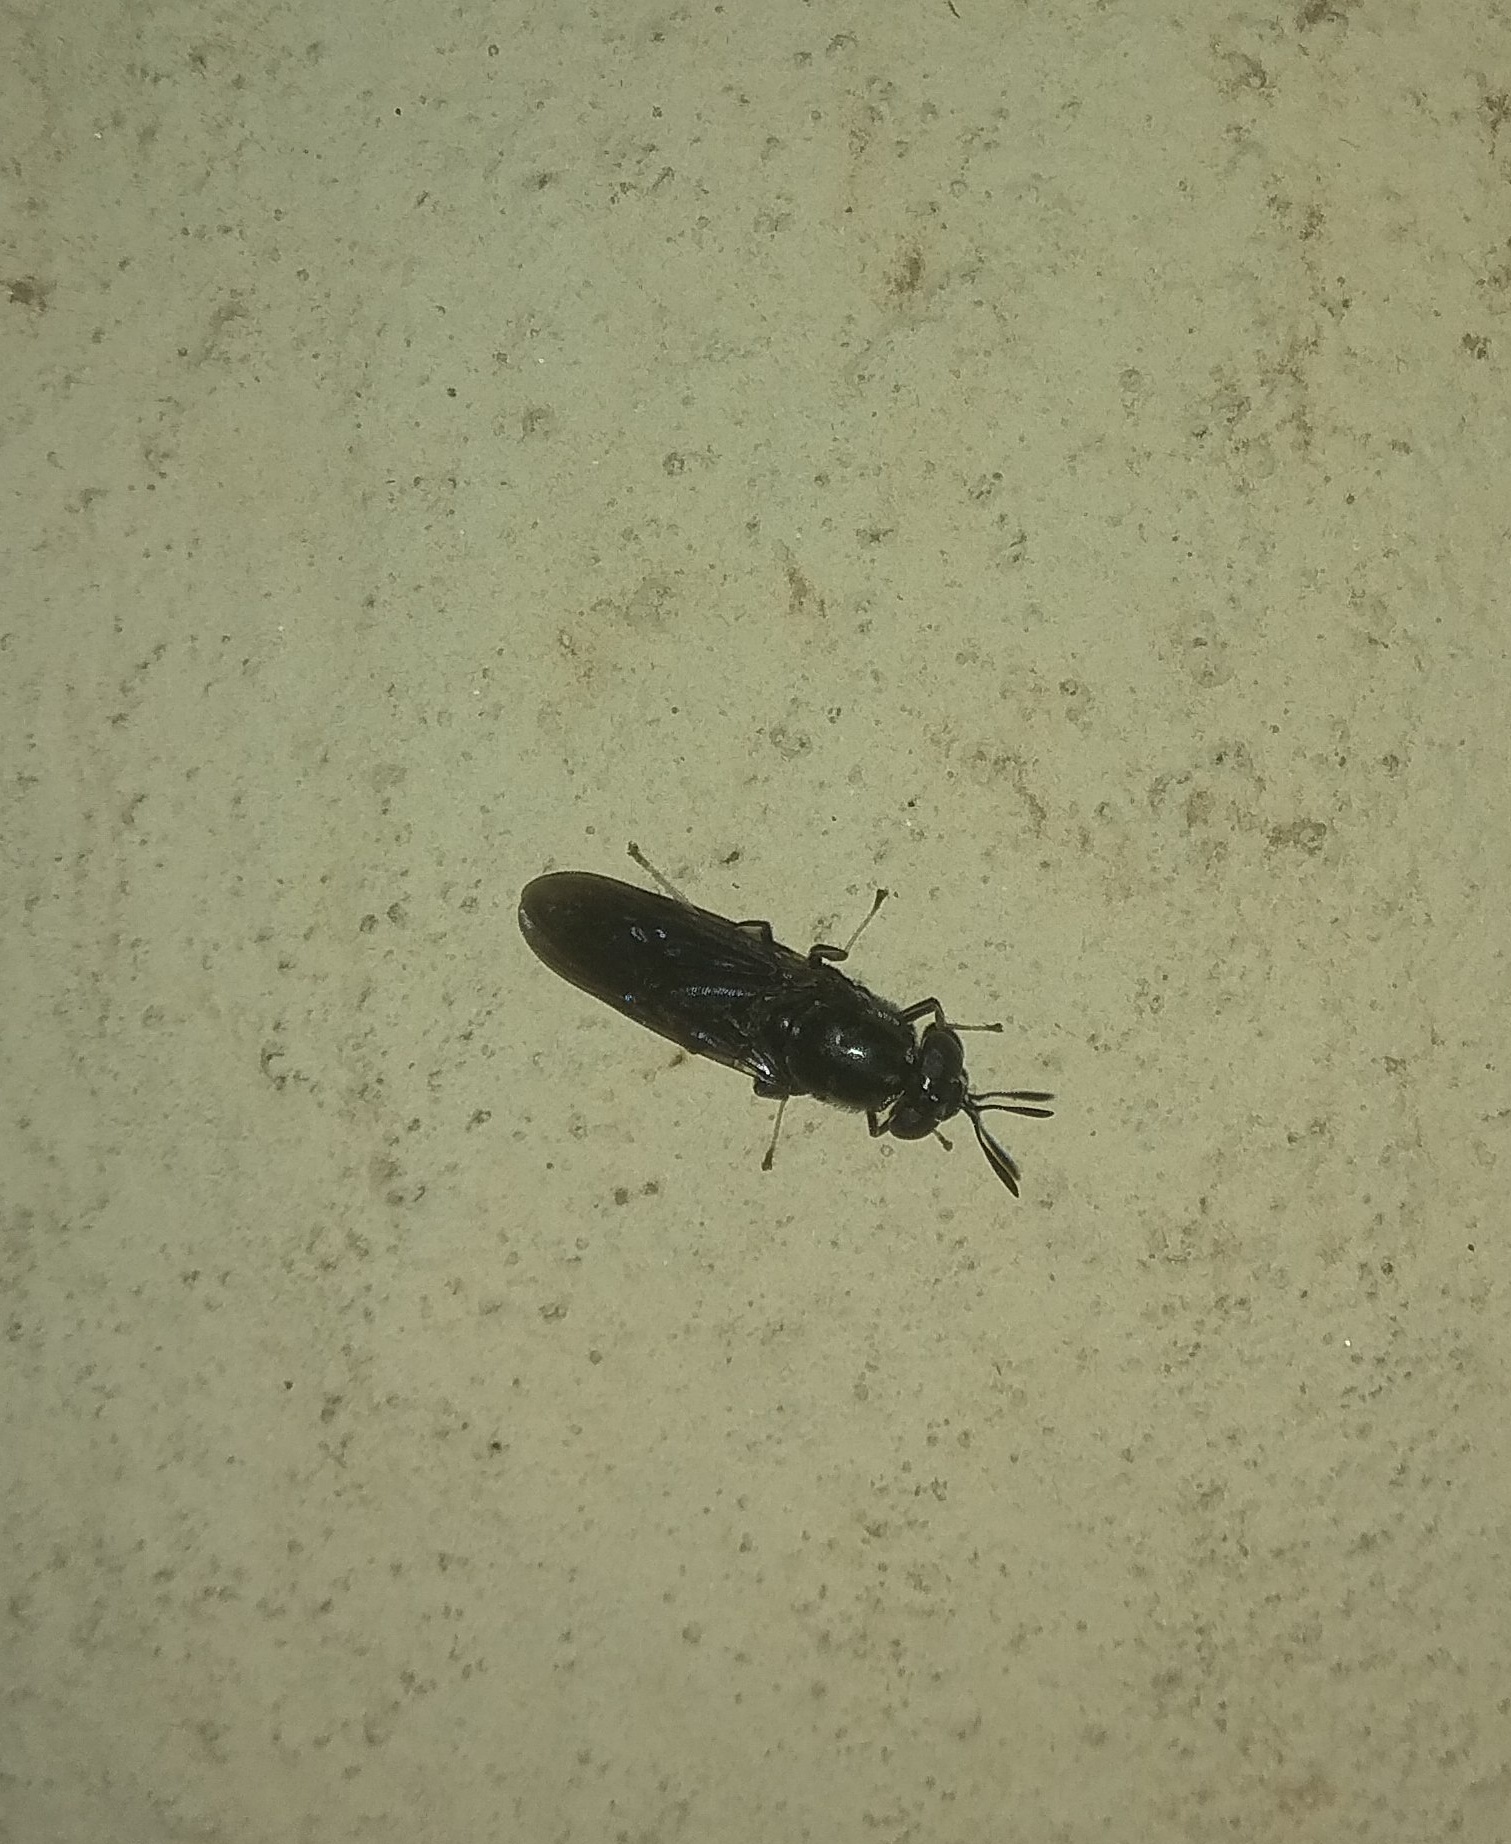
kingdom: Animalia
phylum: Arthropoda
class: Insecta
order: Diptera
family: Stratiomyidae
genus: Hermetia
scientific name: Hermetia illucens
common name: Black soldier fly
